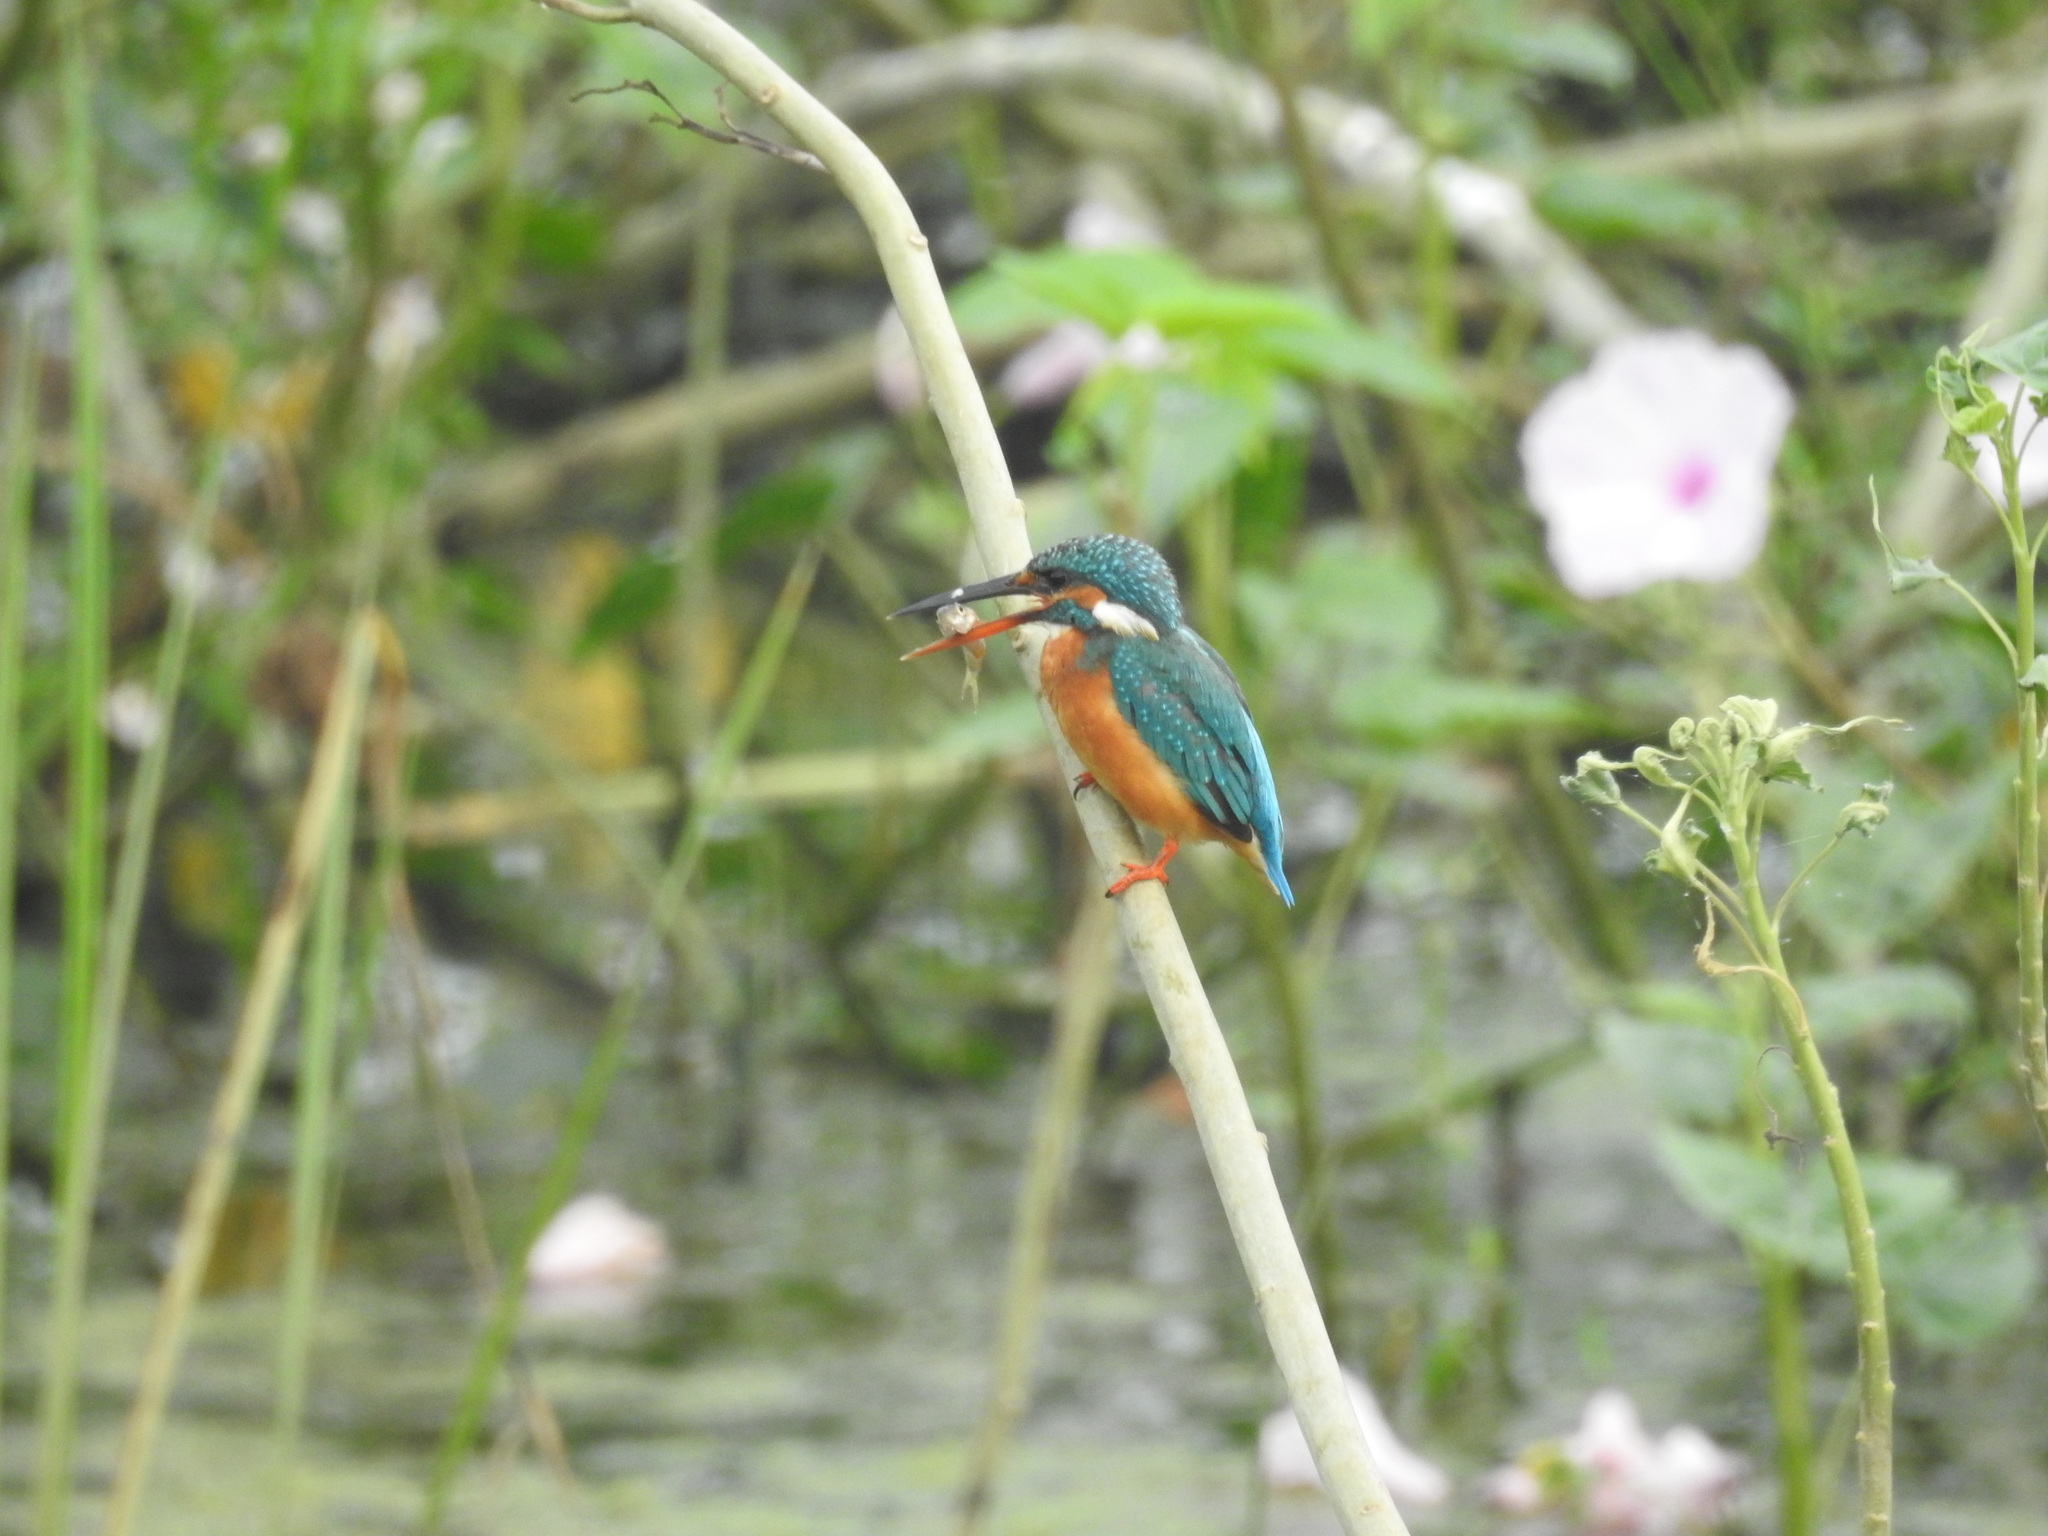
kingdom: Animalia
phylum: Chordata
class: Aves
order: Coraciiformes
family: Alcedinidae
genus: Alcedo
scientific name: Alcedo atthis
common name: Common kingfisher
